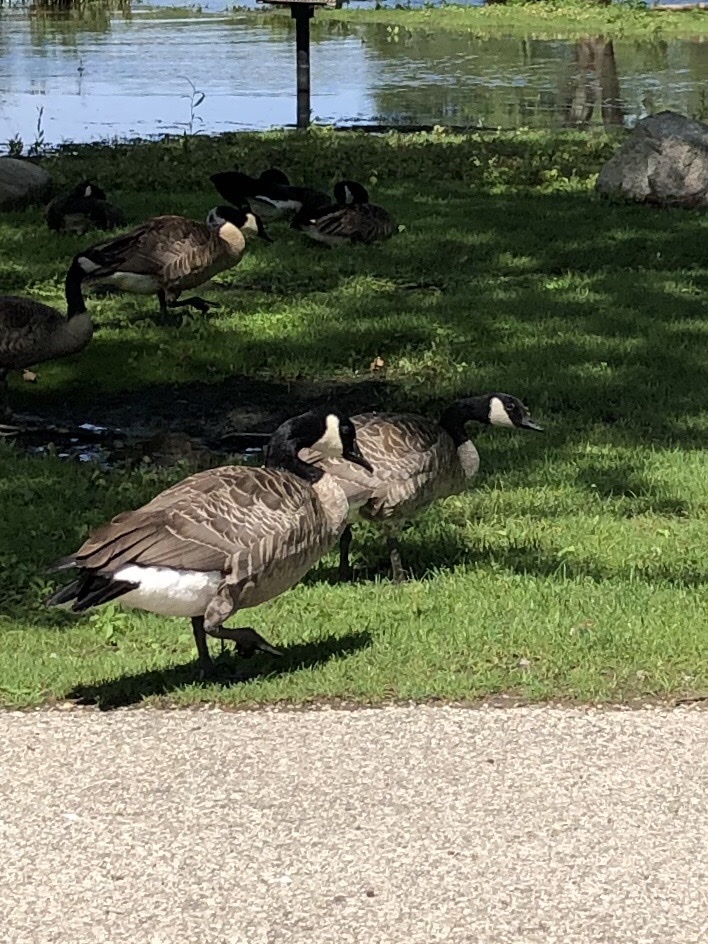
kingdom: Animalia
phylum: Chordata
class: Aves
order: Anseriformes
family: Anatidae
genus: Branta
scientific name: Branta canadensis
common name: Canada goose
